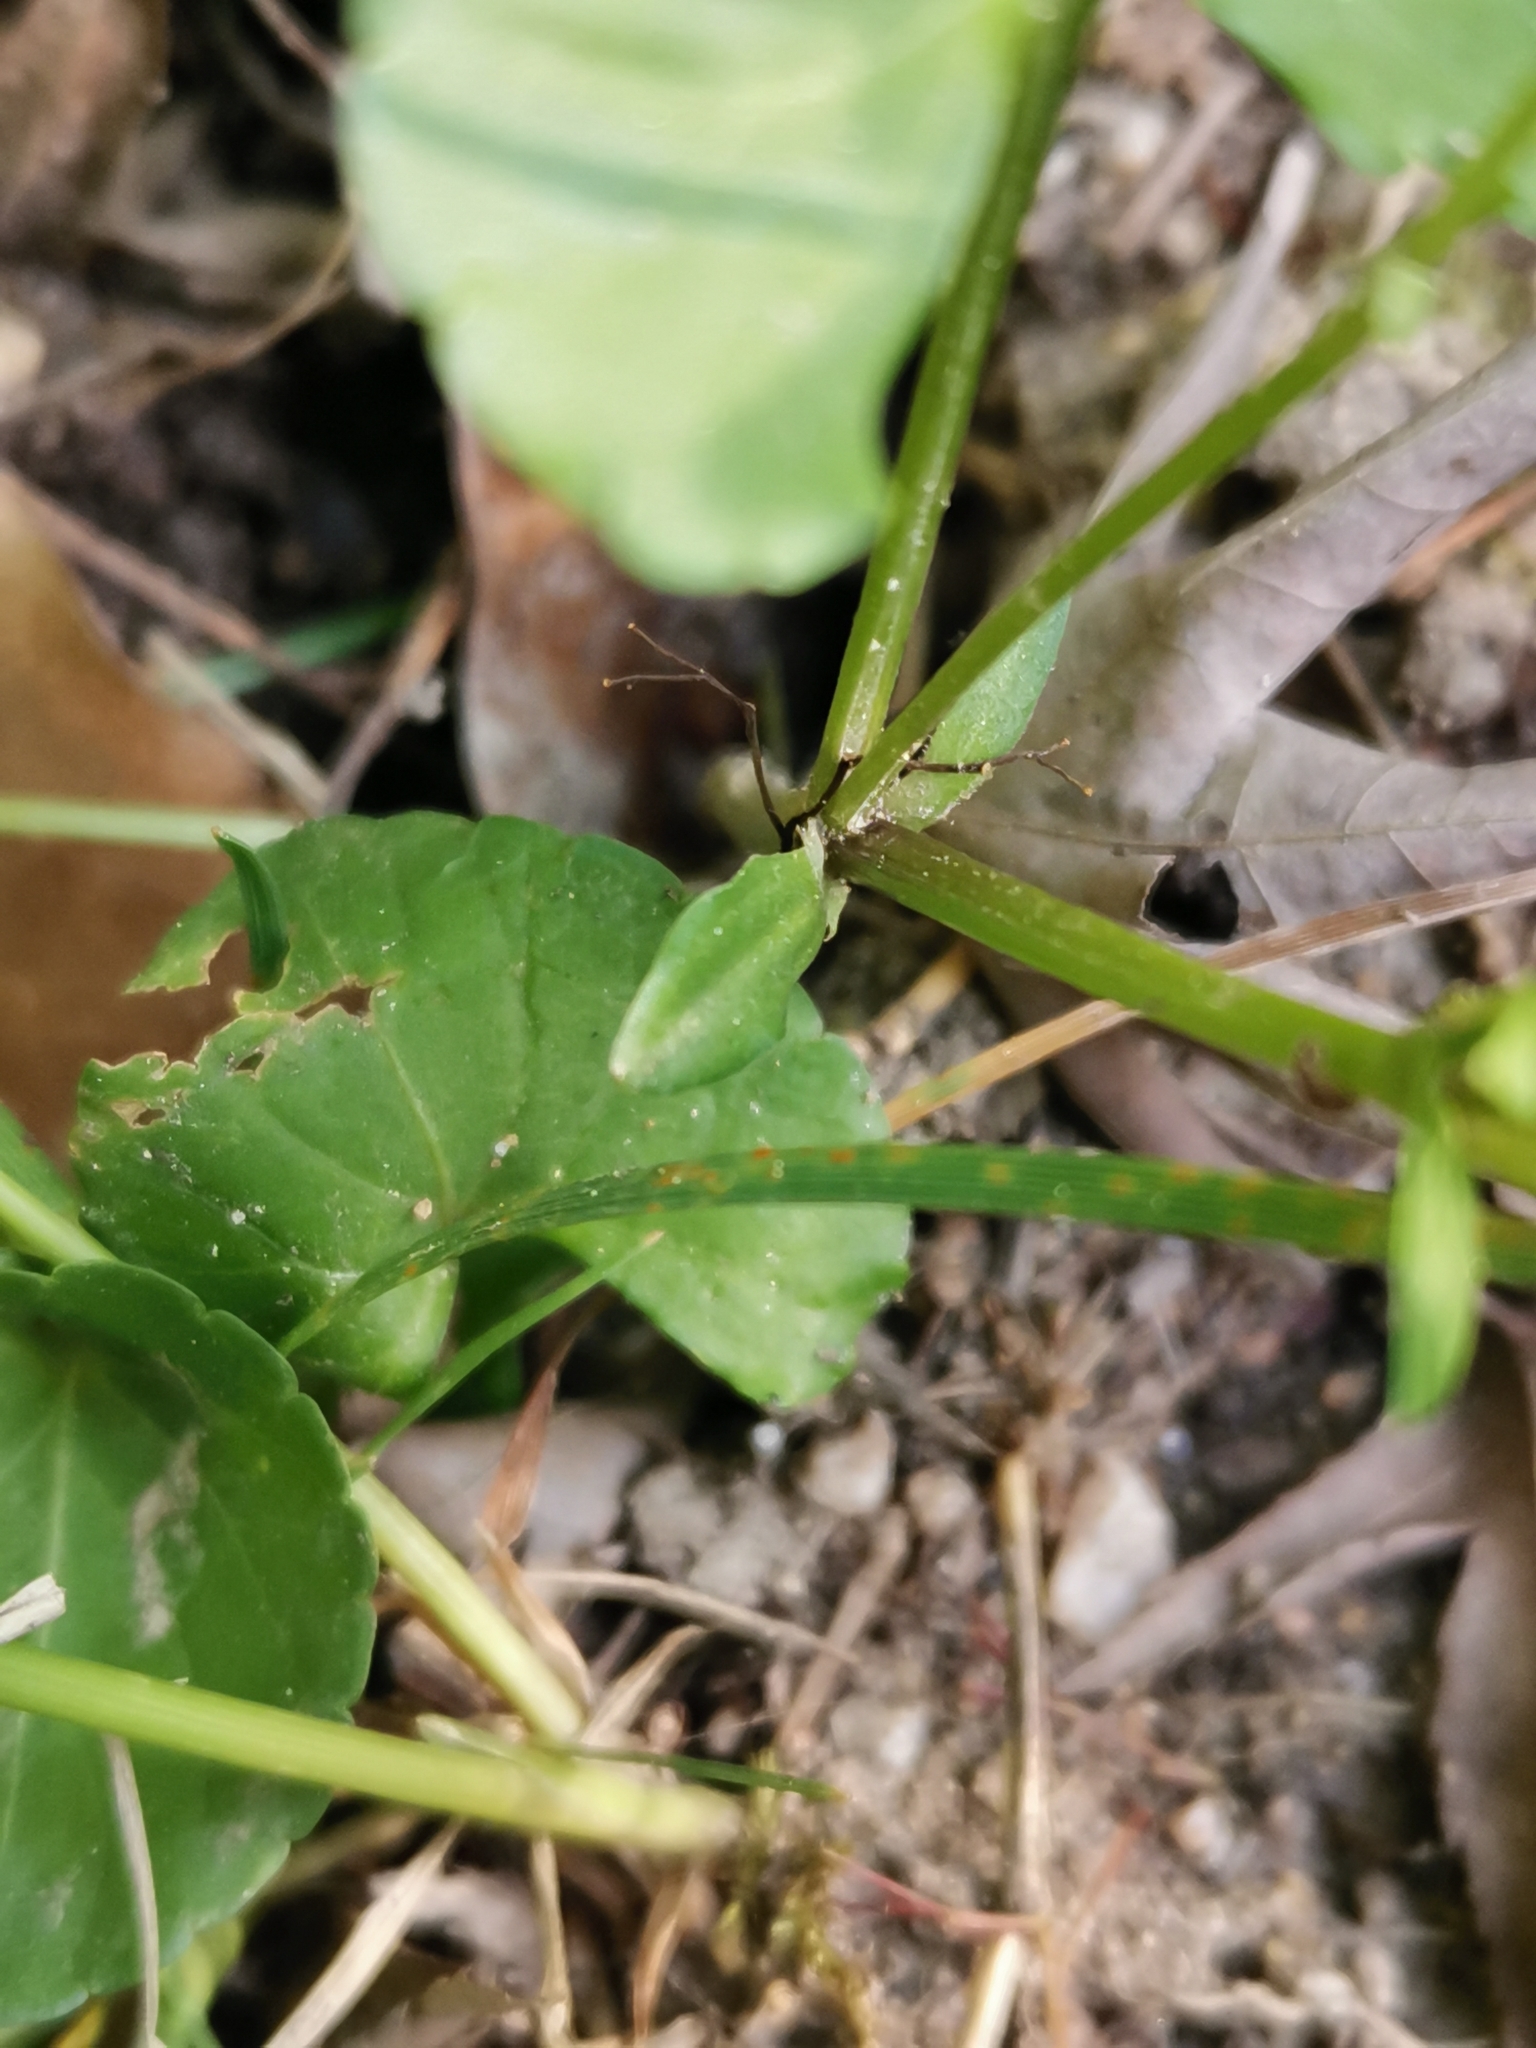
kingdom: Plantae
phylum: Tracheophyta
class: Magnoliopsida
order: Malpighiales
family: Violaceae
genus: Viola
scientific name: Viola
